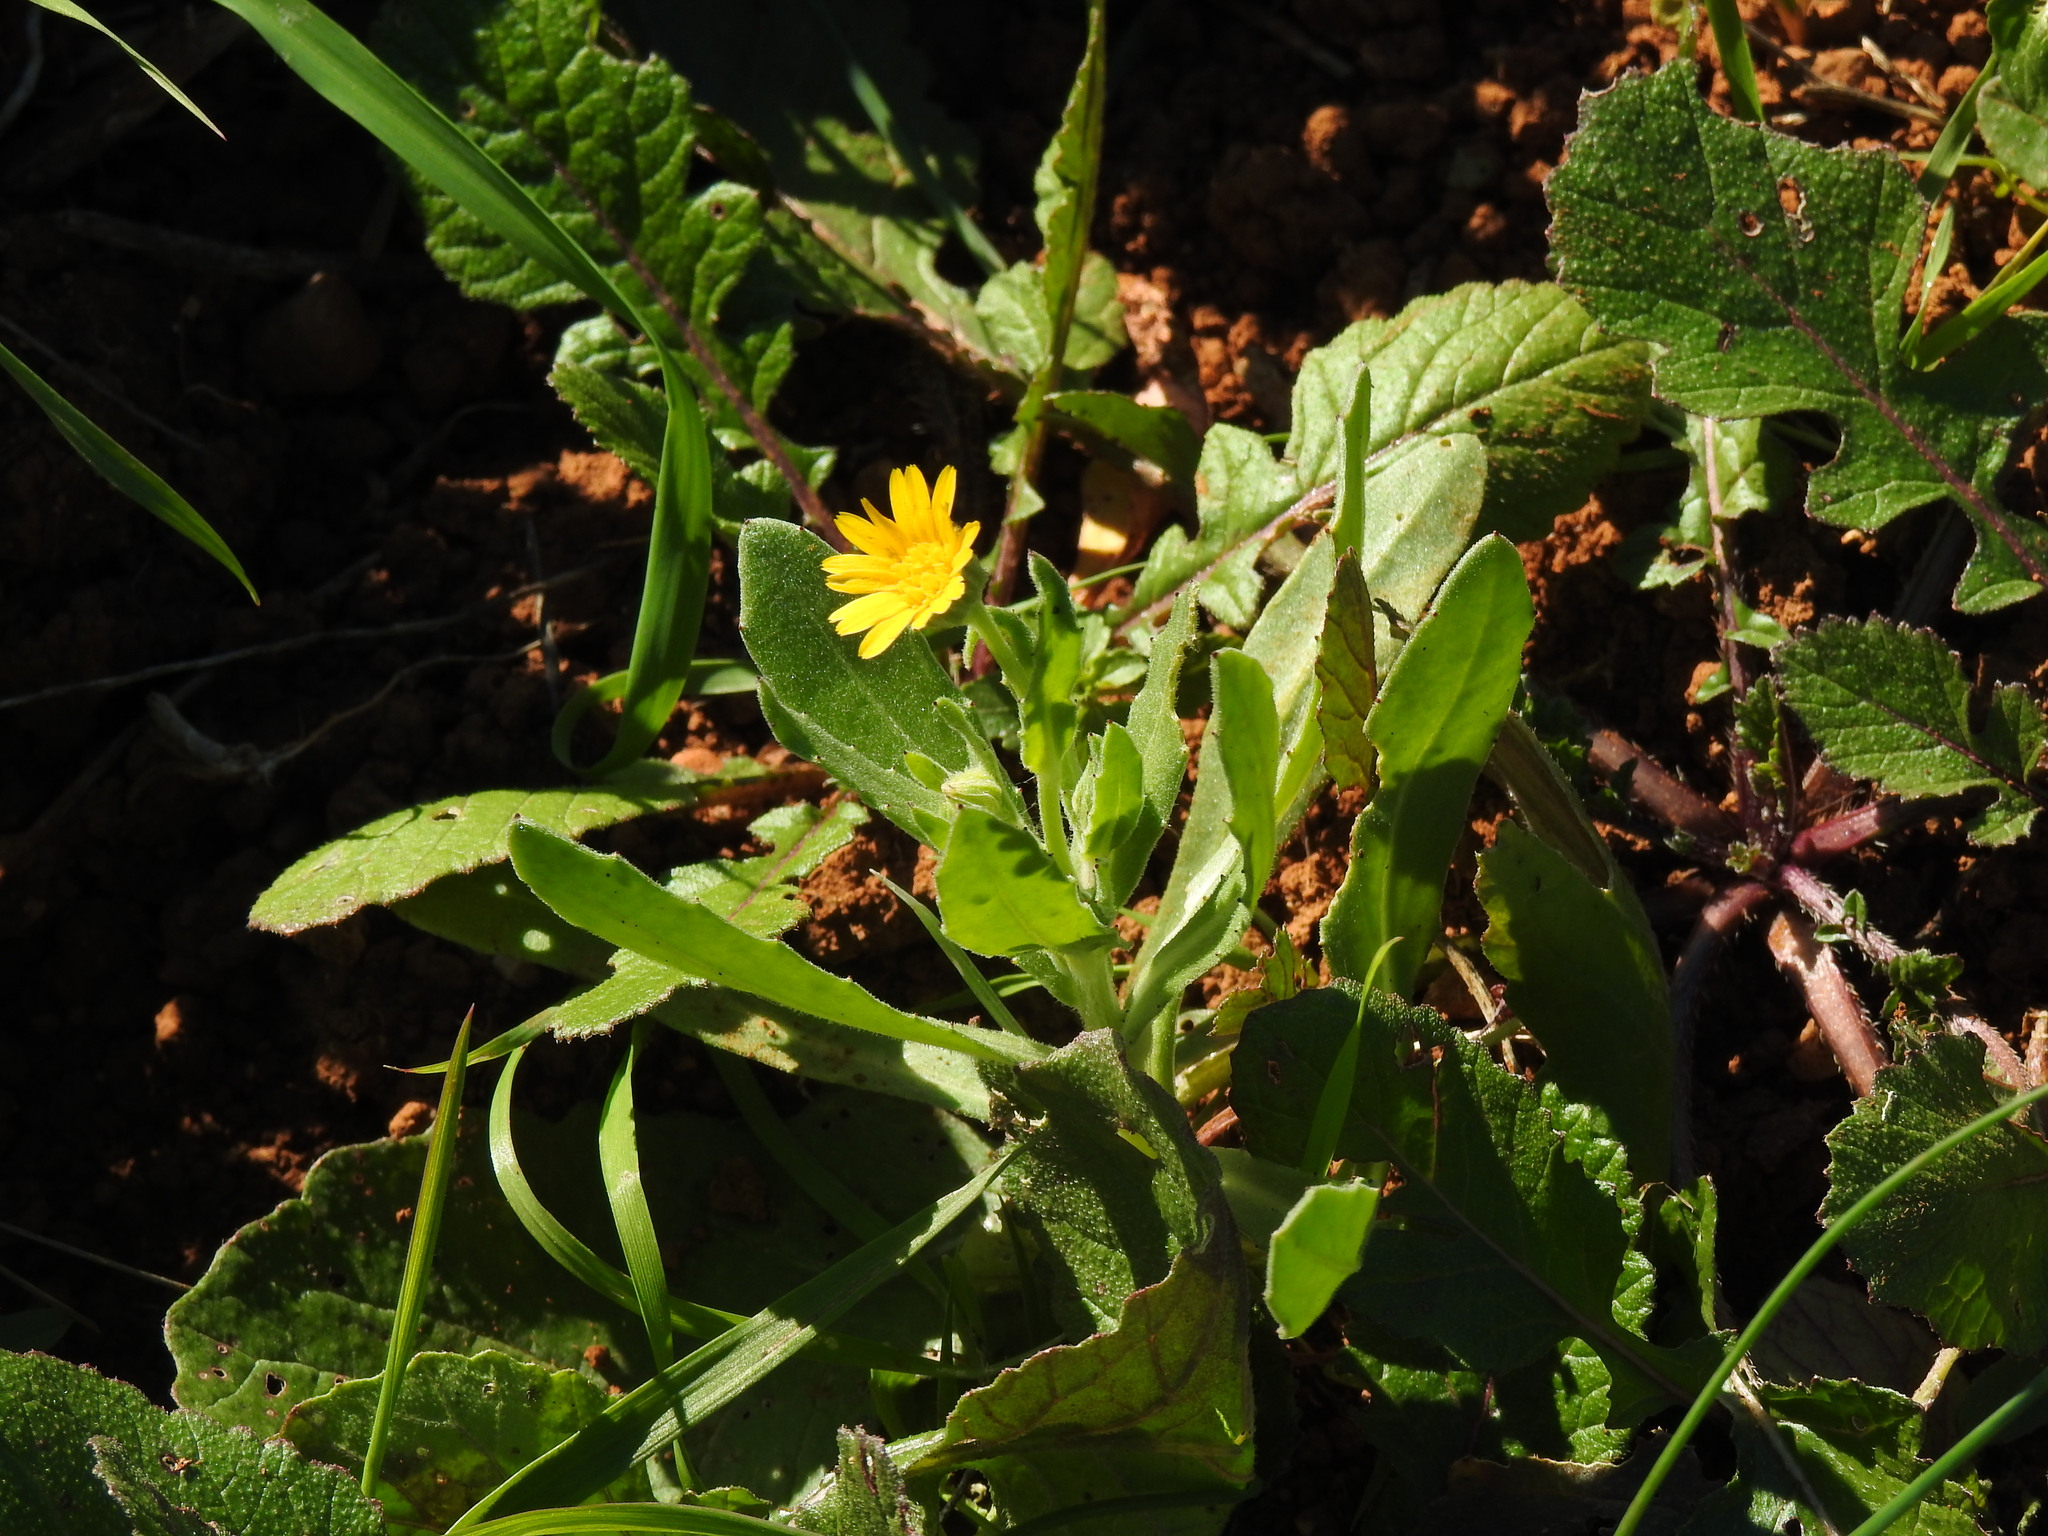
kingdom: Plantae
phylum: Tracheophyta
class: Magnoliopsida
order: Asterales
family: Asteraceae
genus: Calendula
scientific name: Calendula arvensis
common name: Field marigold
